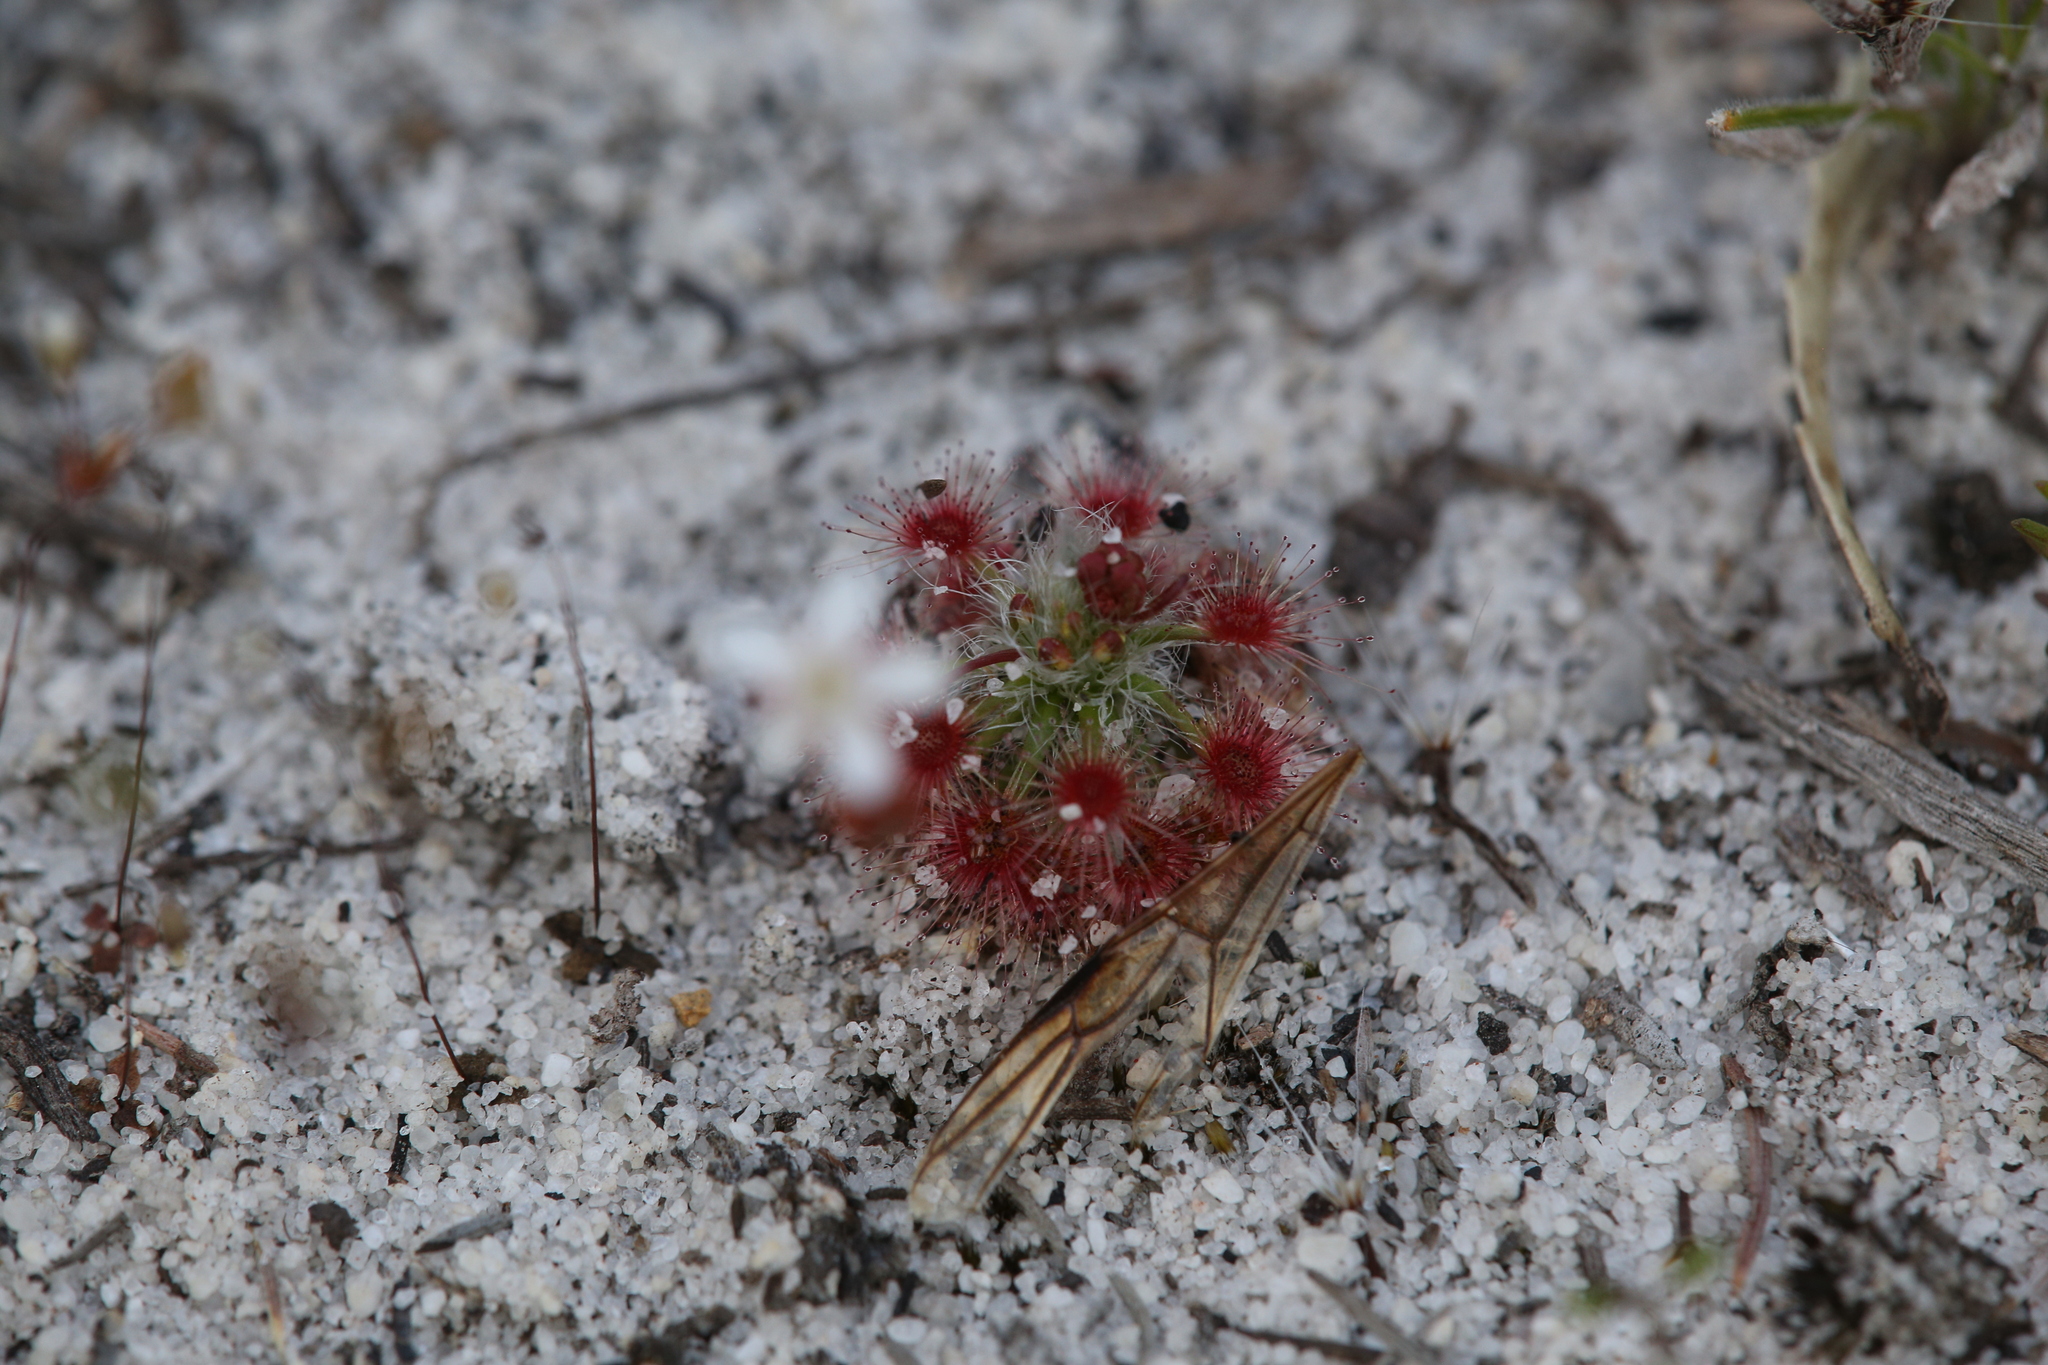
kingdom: Plantae
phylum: Tracheophyta
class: Magnoliopsida
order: Caryophyllales
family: Droseraceae
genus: Drosera
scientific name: Drosera paleacea
